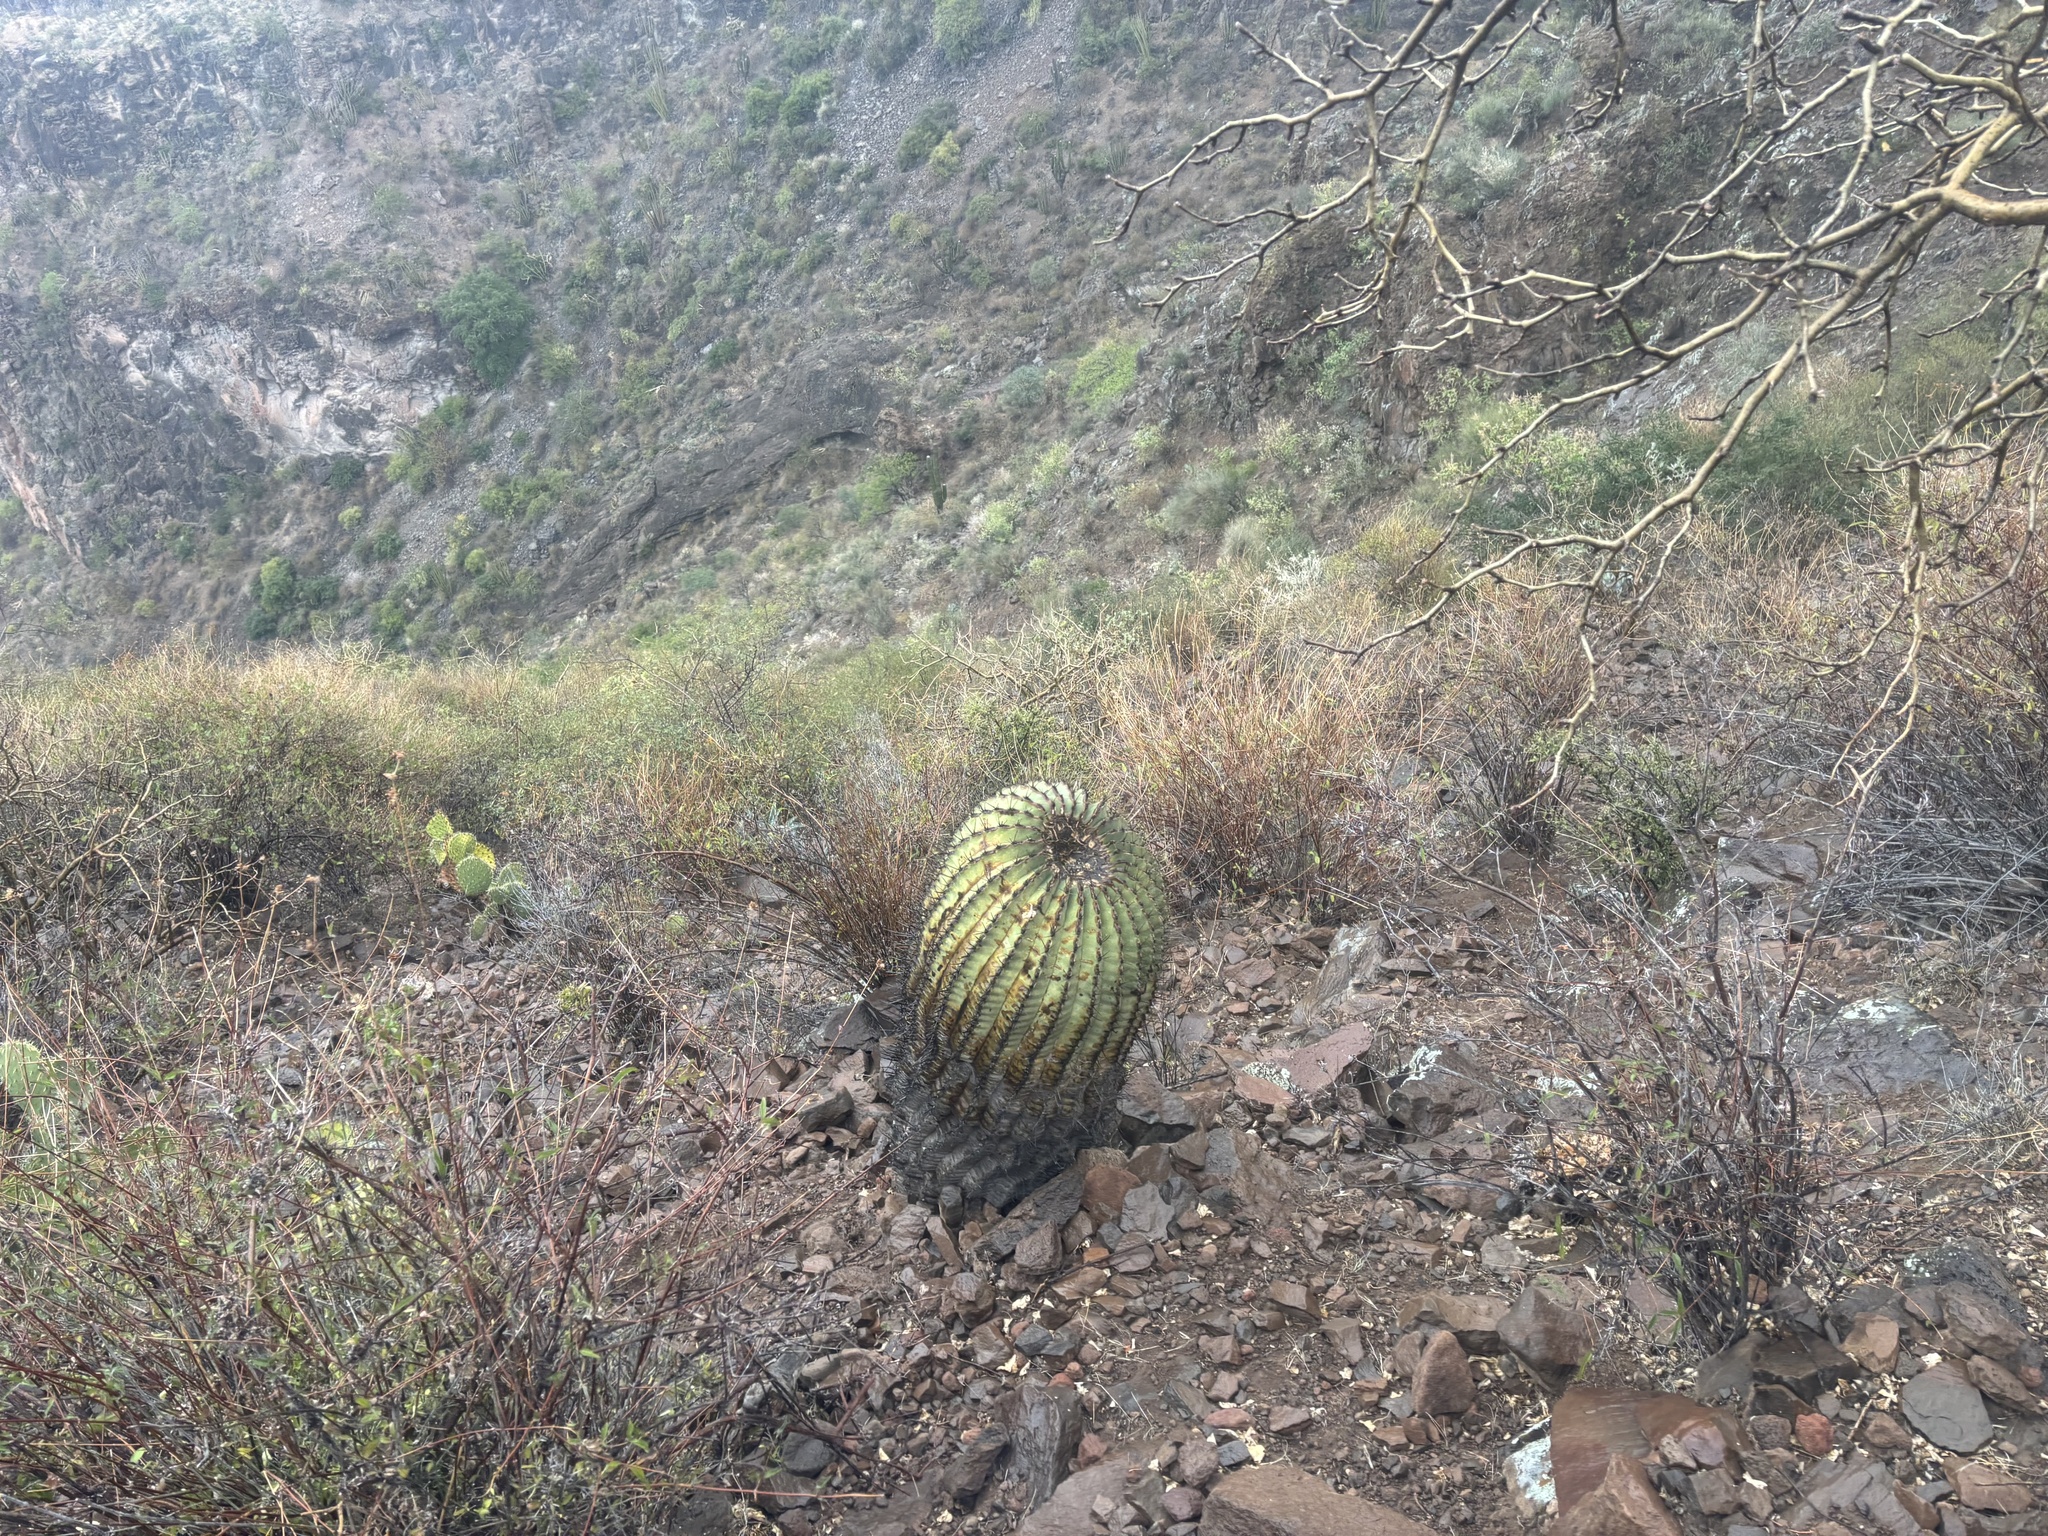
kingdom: Plantae
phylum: Tracheophyta
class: Magnoliopsida
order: Caryophyllales
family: Cactaceae
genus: Ferocactus
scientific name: Ferocactus emoryi
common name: Emory's barrel cactus
